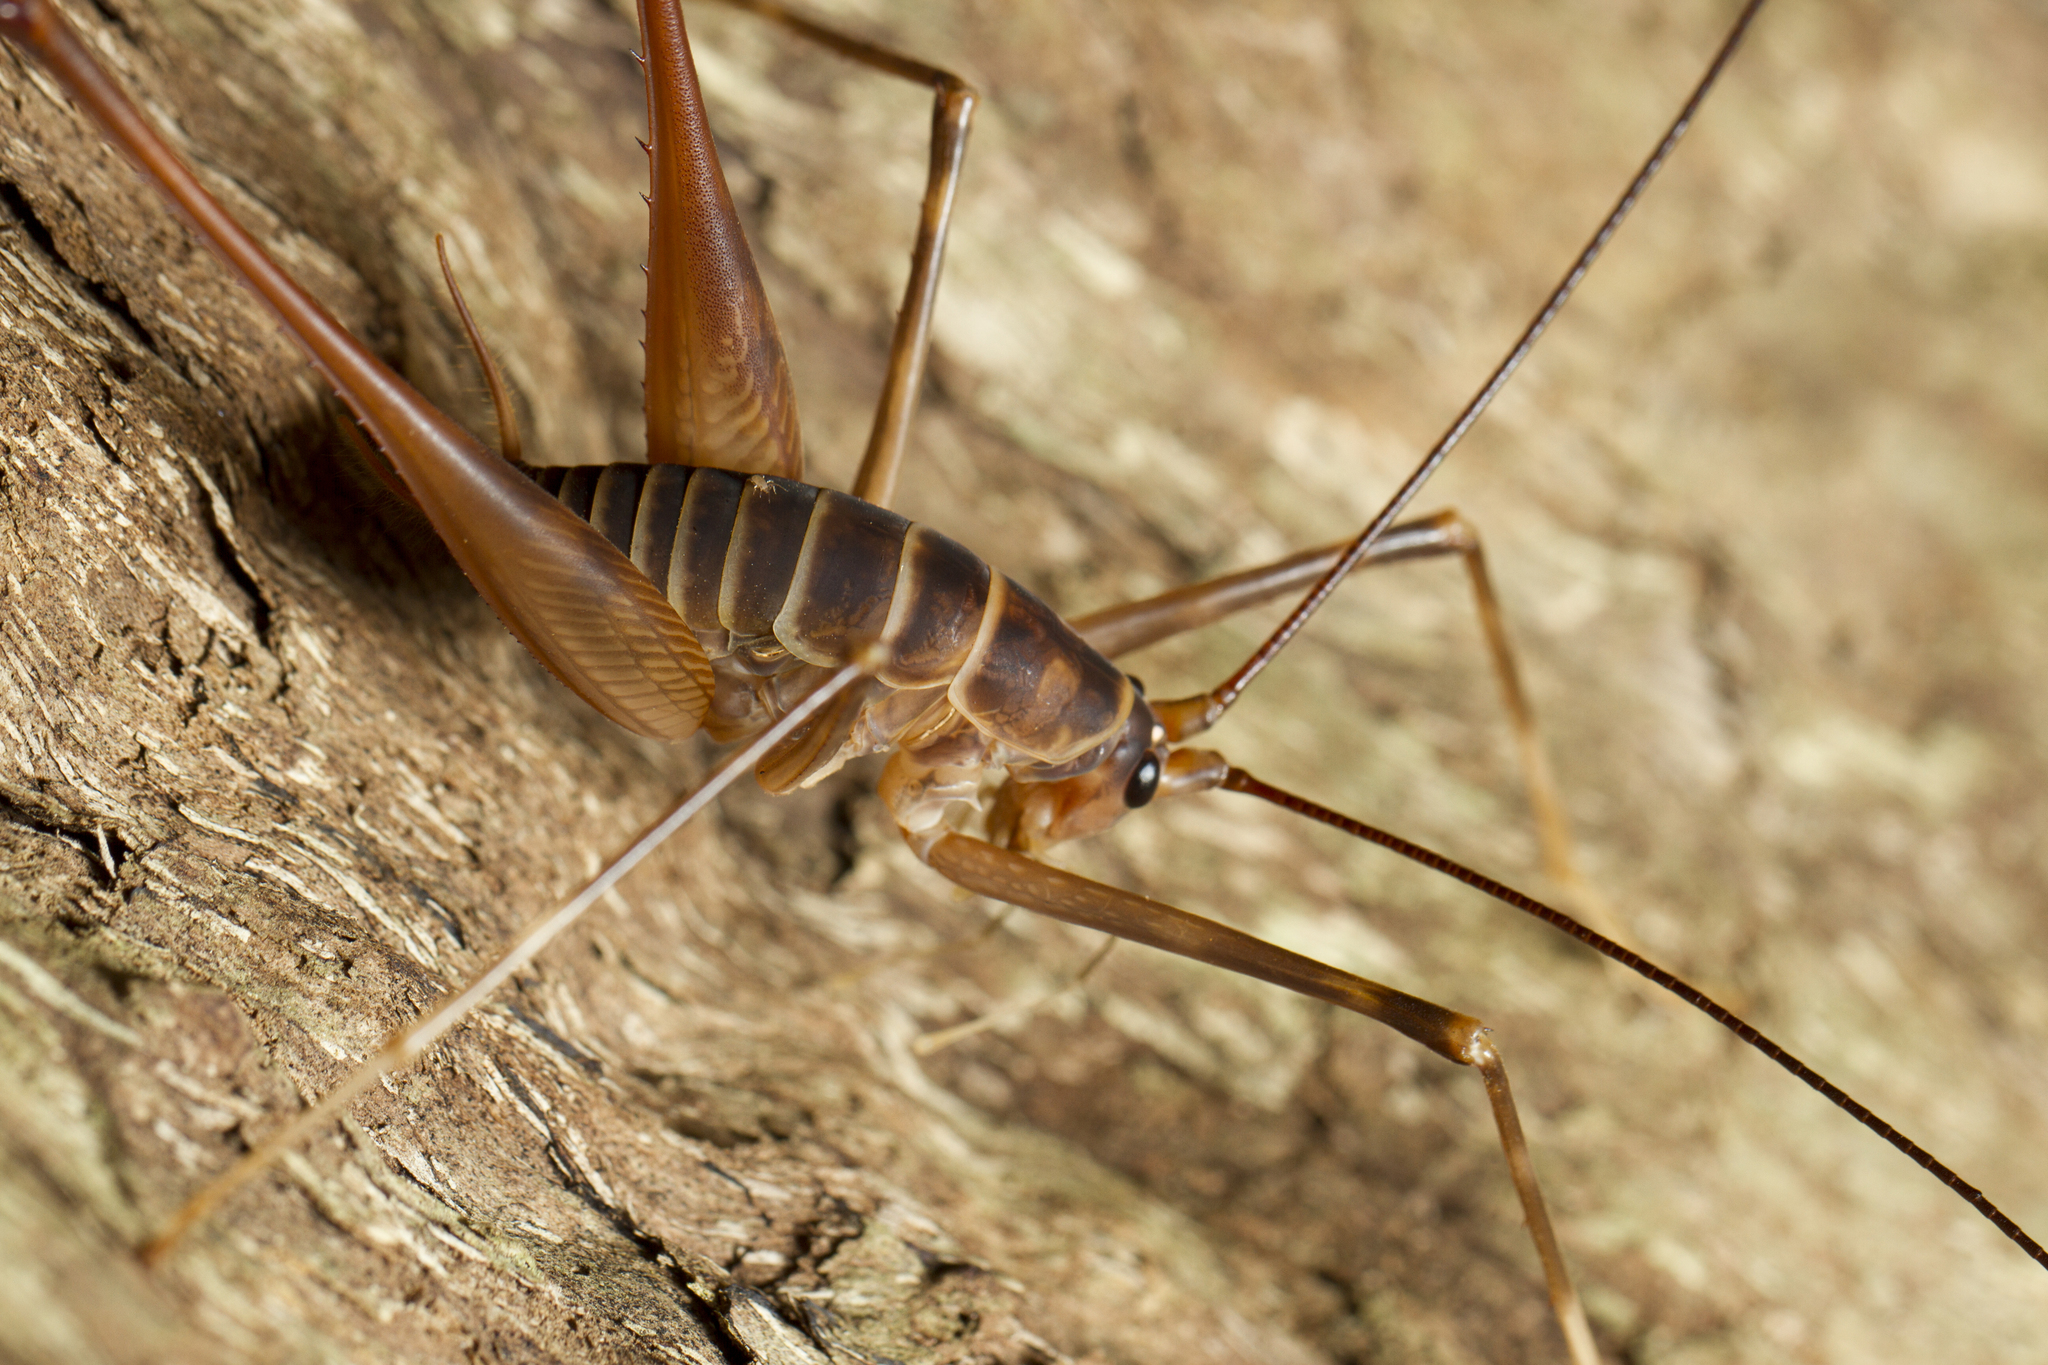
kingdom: Animalia
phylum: Arthropoda
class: Insecta
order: Orthoptera
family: Rhaphidophoridae
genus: Pachyrhamma
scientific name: Pachyrhamma acanthocera
